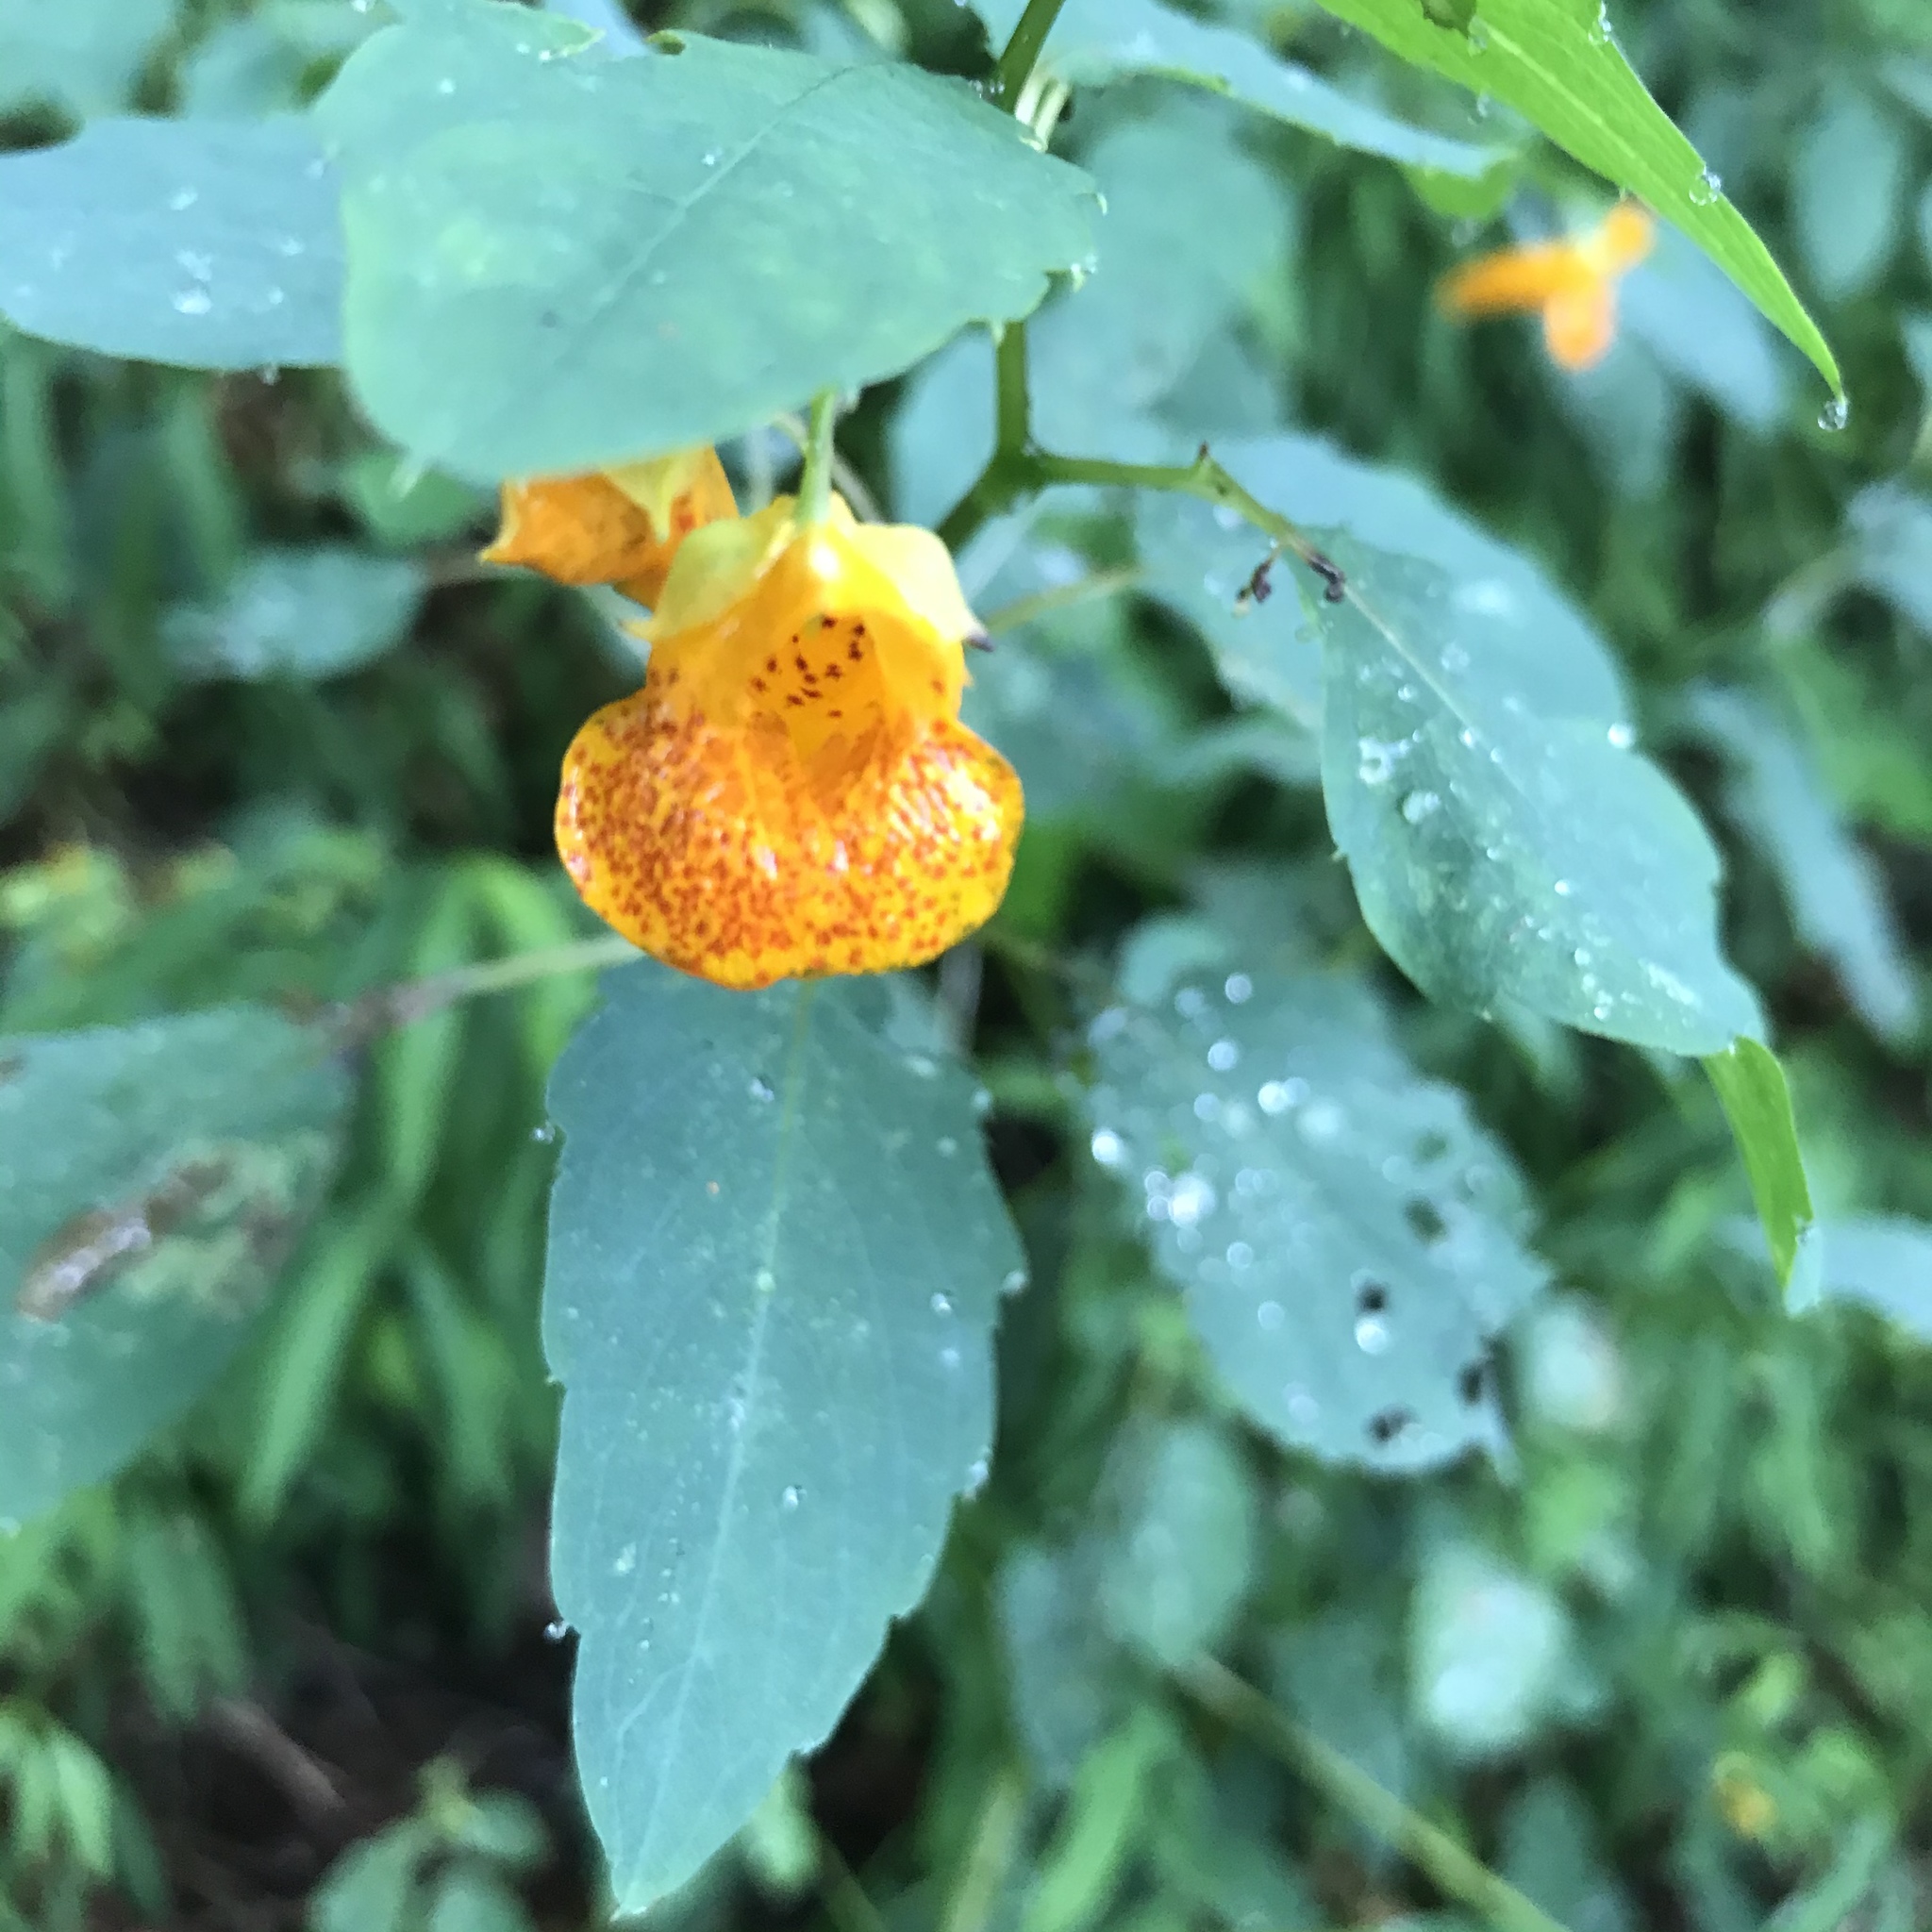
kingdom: Plantae
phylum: Tracheophyta
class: Magnoliopsida
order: Ericales
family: Balsaminaceae
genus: Impatiens
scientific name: Impatiens capensis
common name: Orange balsam
